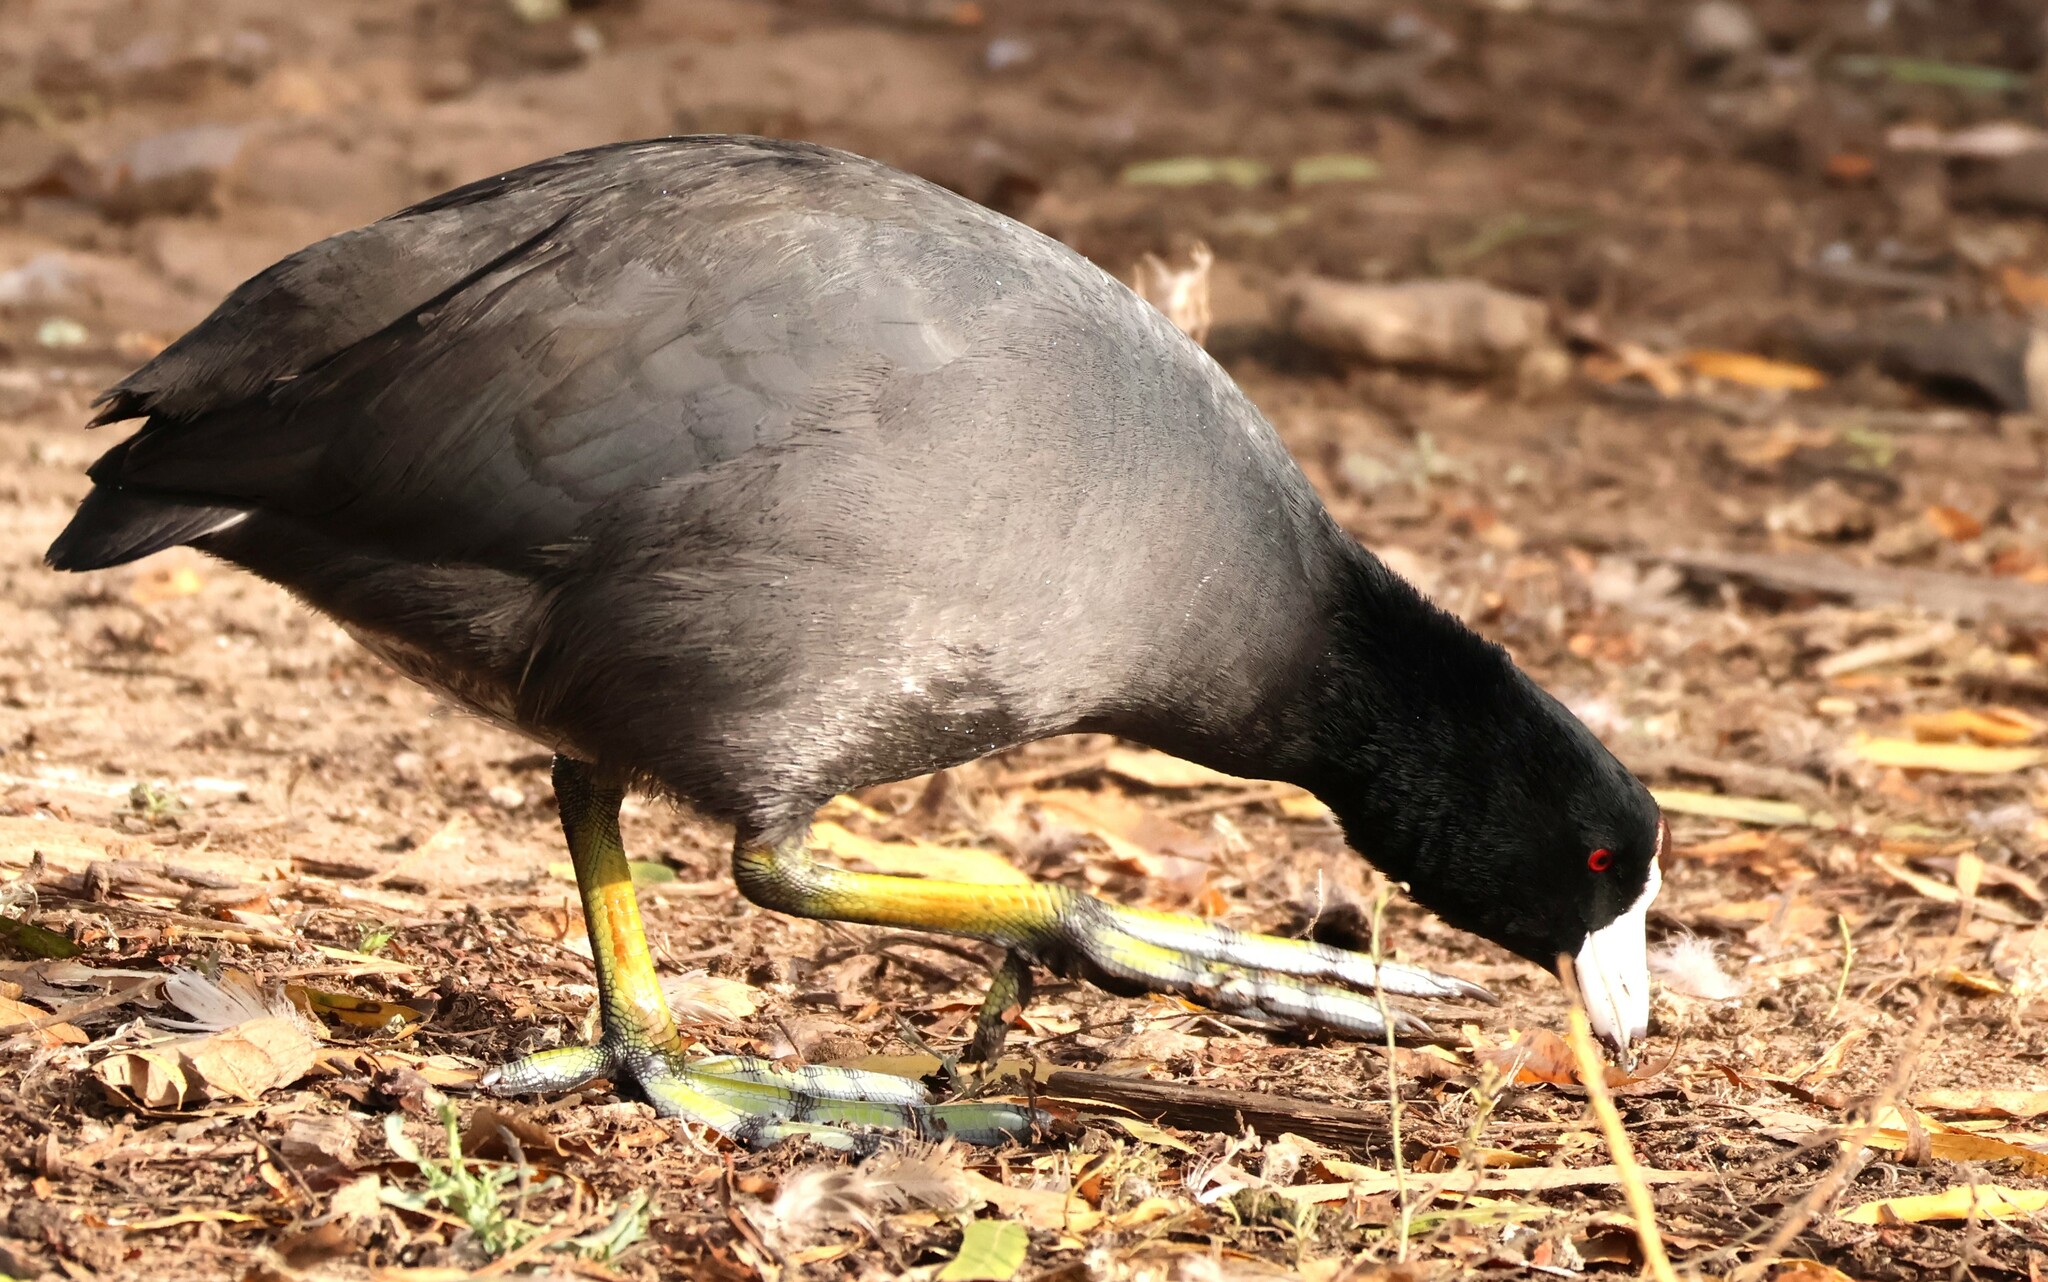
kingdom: Animalia
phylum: Chordata
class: Aves
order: Gruiformes
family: Rallidae
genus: Fulica
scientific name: Fulica americana
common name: American coot
